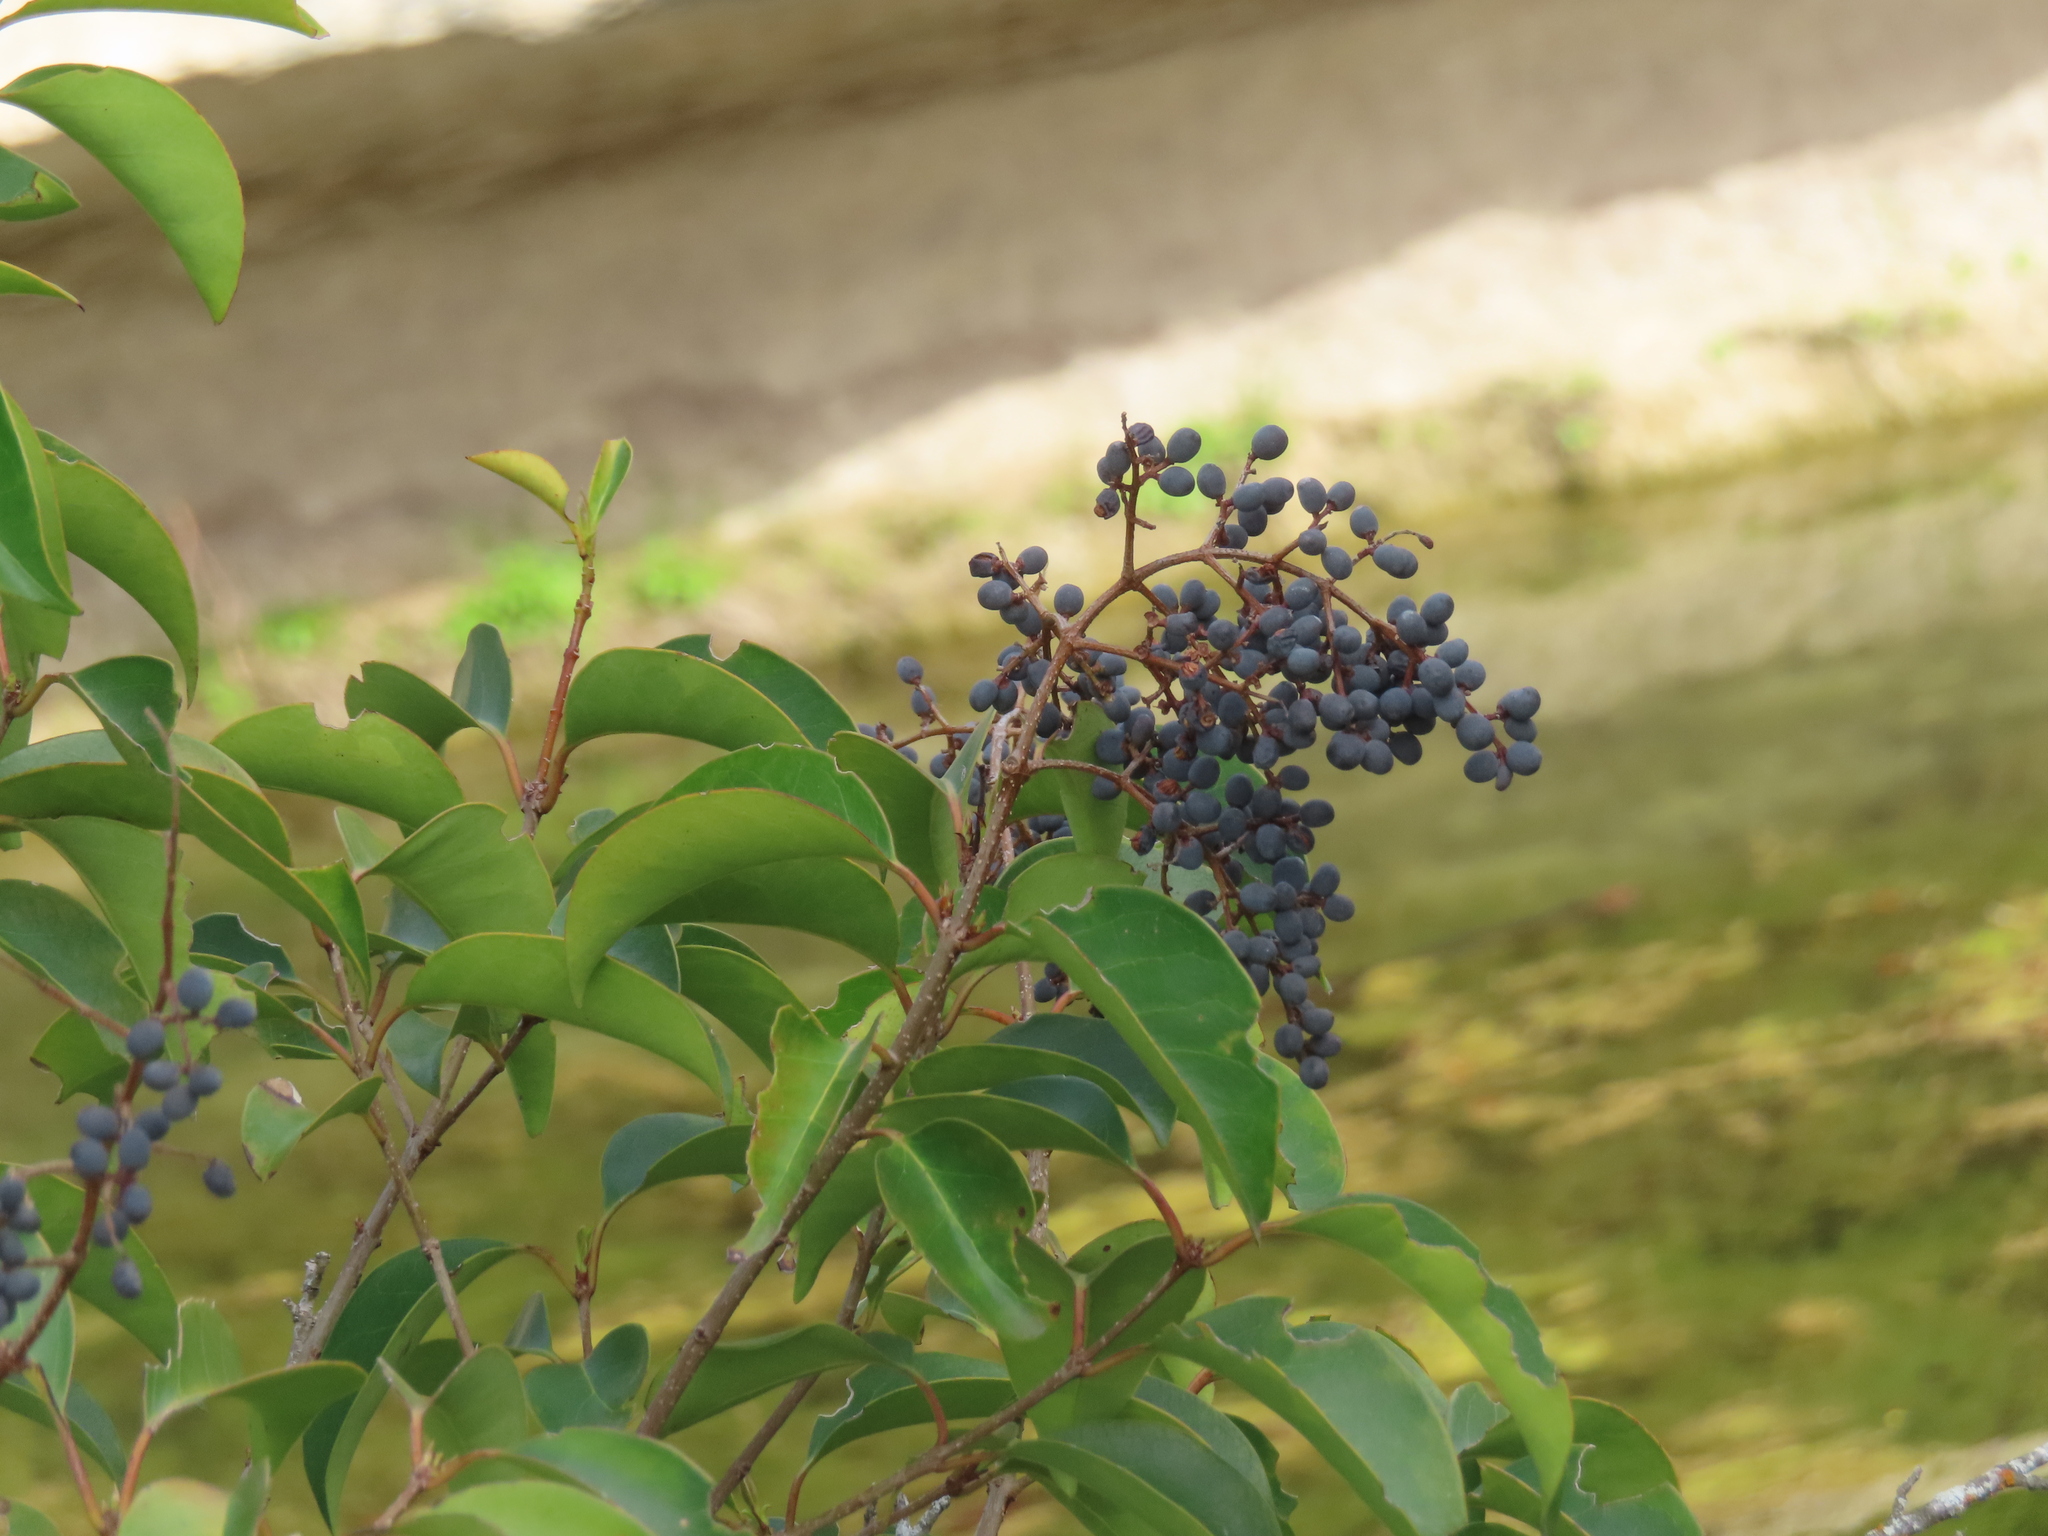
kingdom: Plantae
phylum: Tracheophyta
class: Magnoliopsida
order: Lamiales
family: Oleaceae
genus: Ligustrum
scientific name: Ligustrum lucidum
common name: Glossy privet
